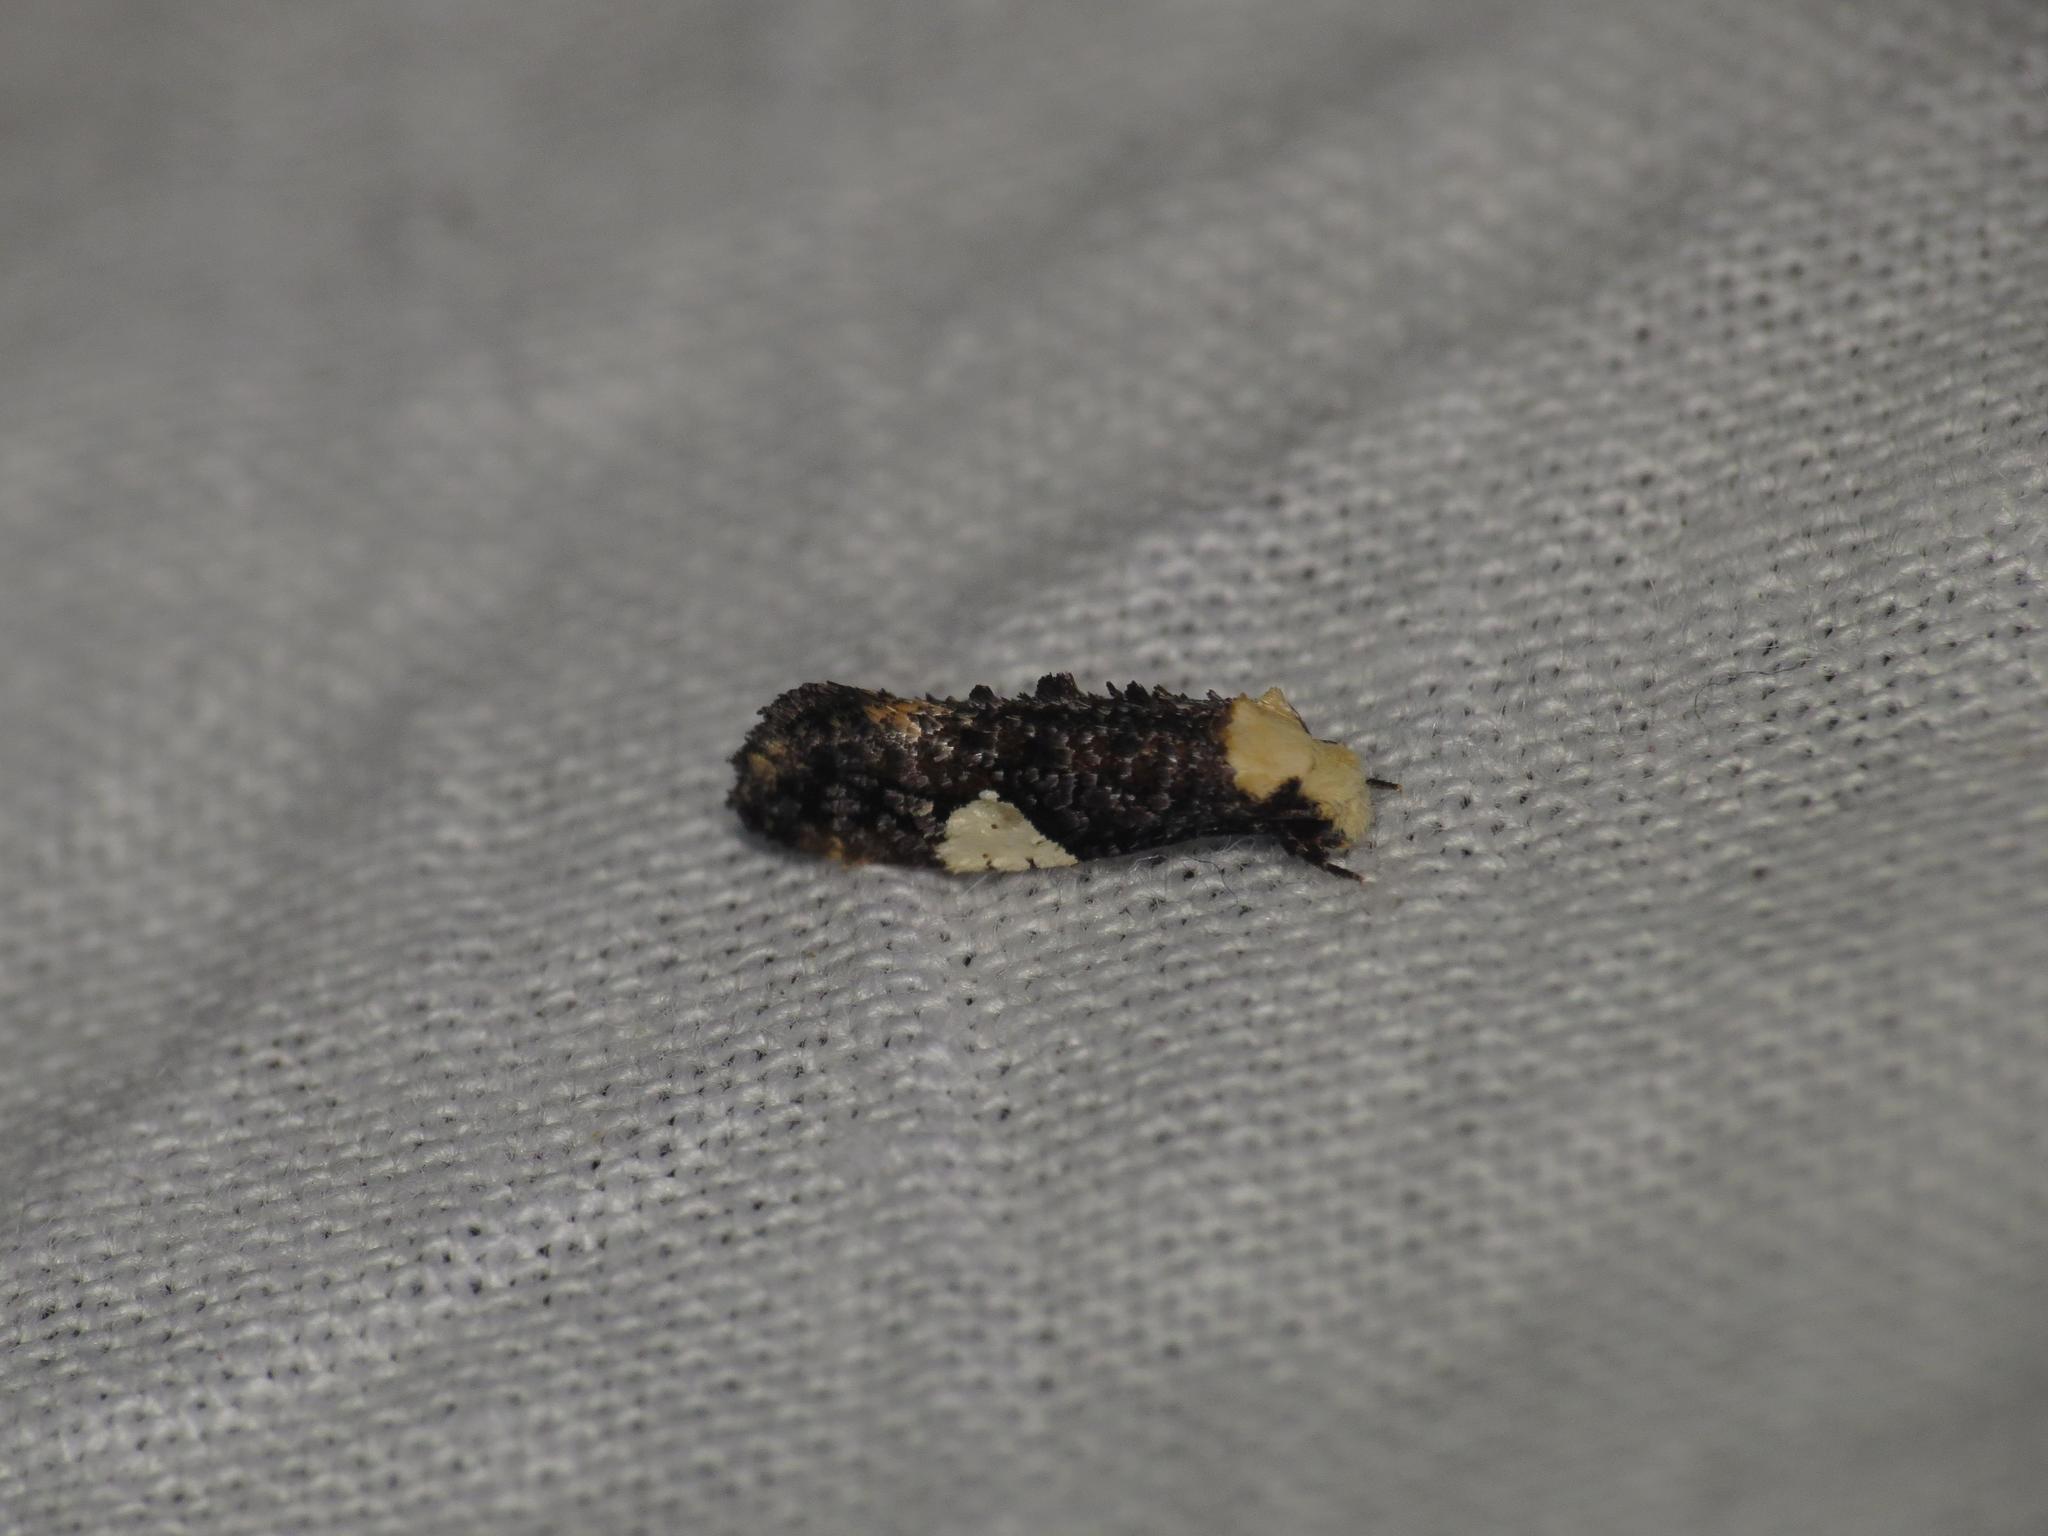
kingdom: Animalia
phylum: Arthropoda
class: Insecta
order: Lepidoptera
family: Tineidae
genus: Monopis
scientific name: Monopis trigonoleuca
